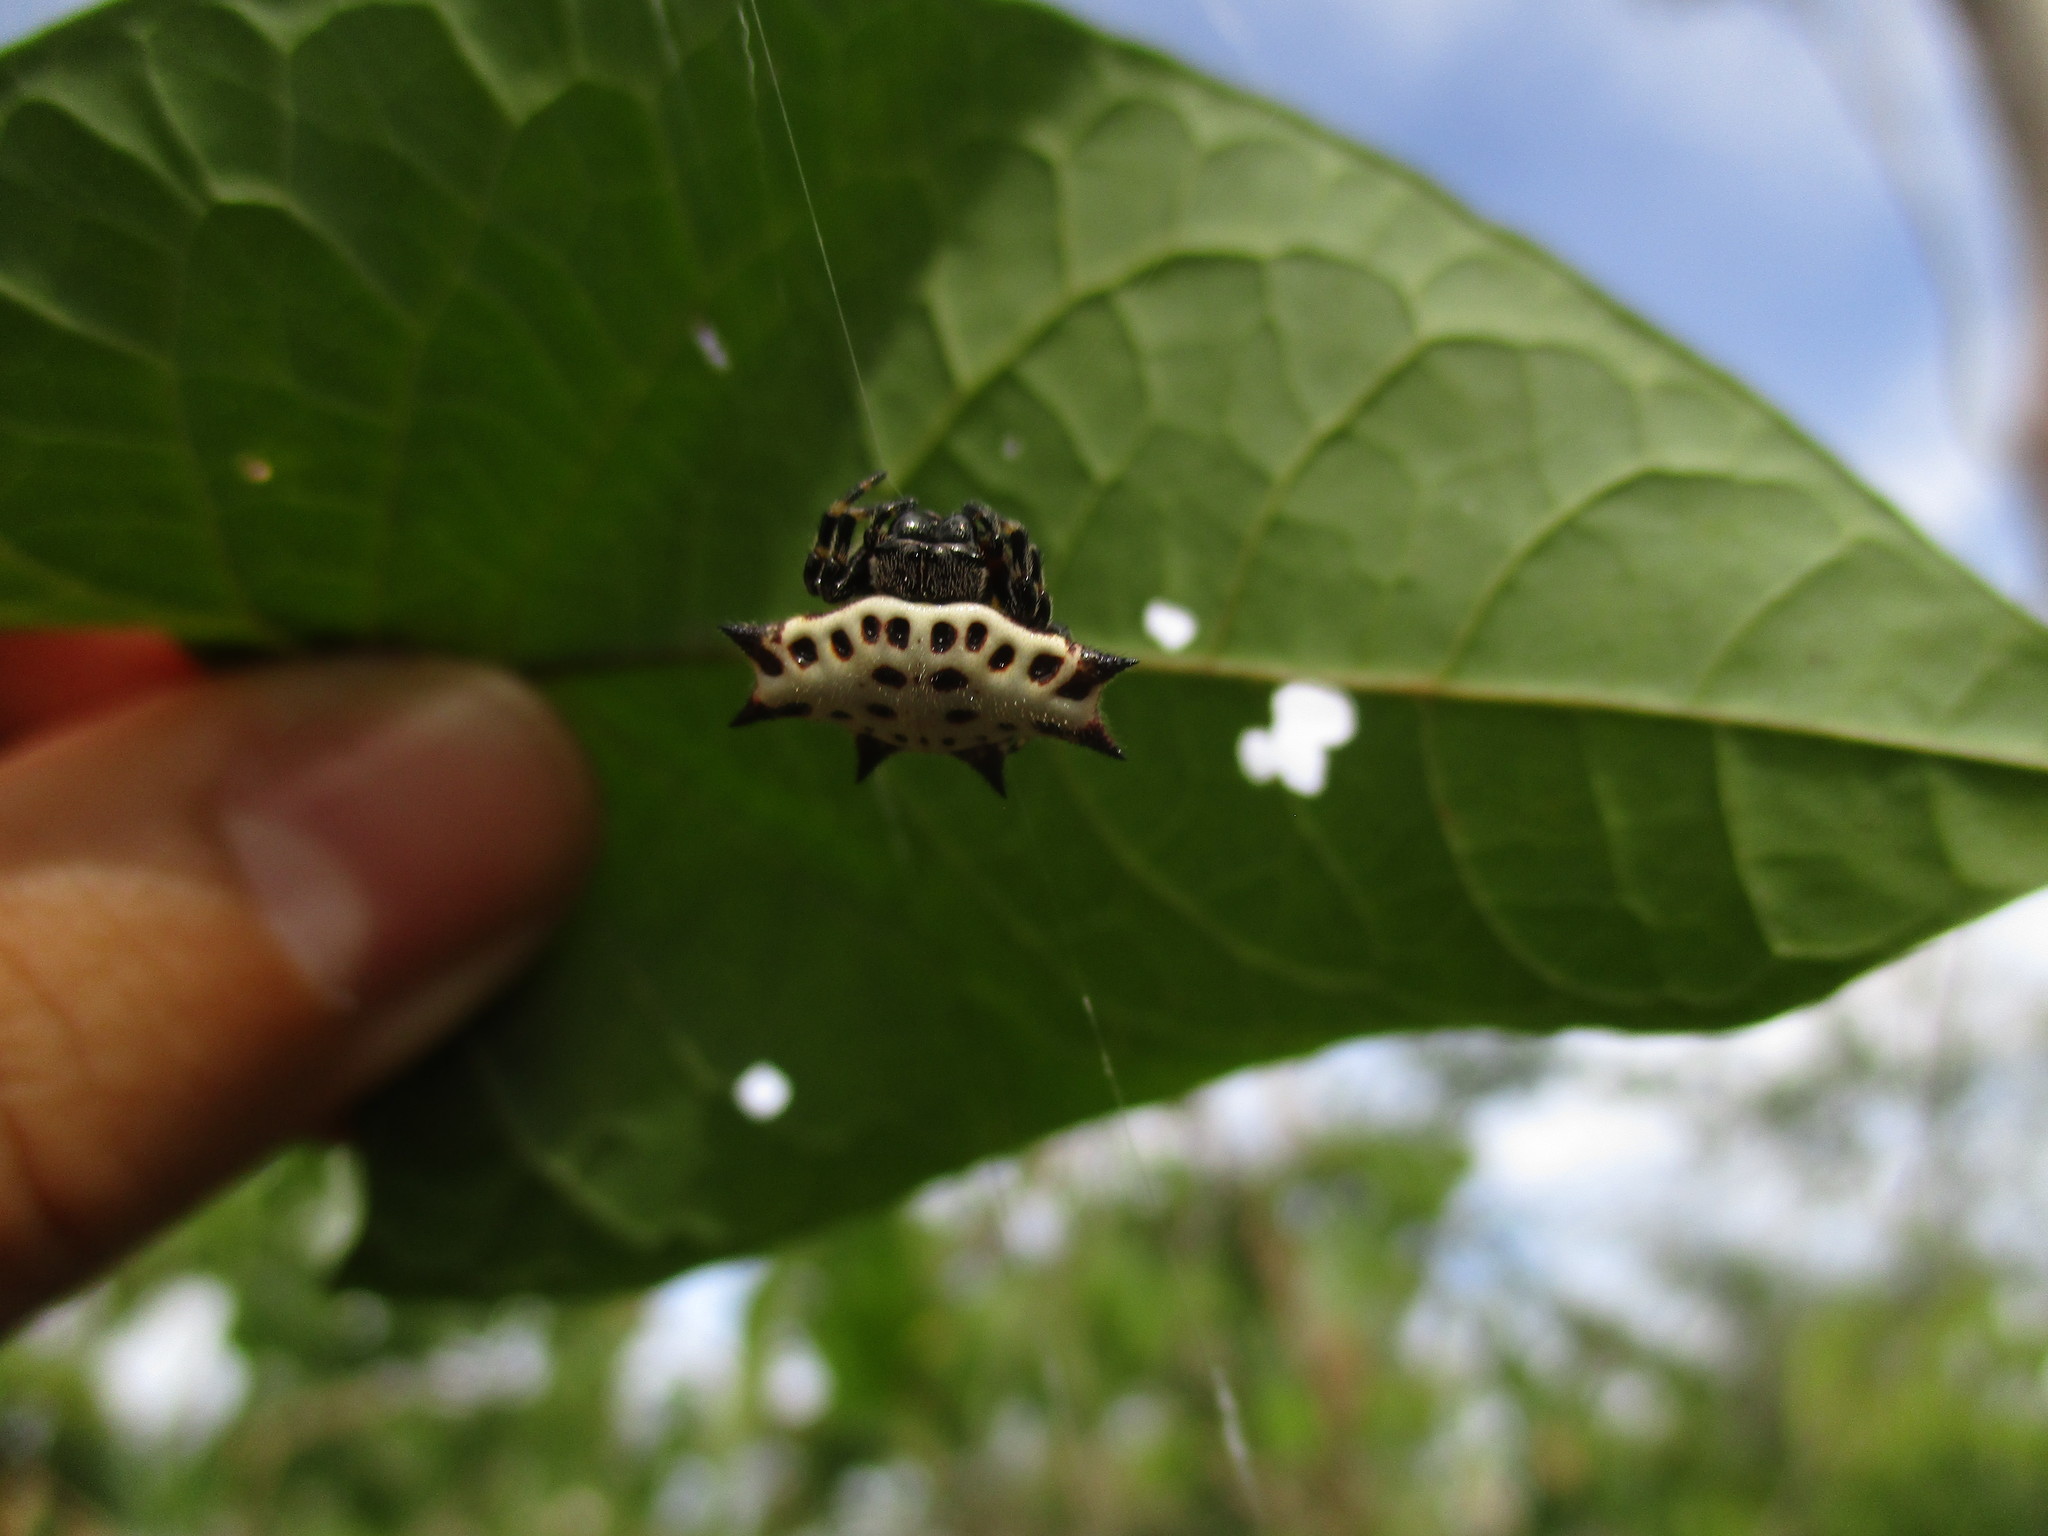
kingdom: Animalia
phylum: Arthropoda
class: Arachnida
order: Araneae
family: Araneidae
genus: Gasteracantha
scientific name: Gasteracantha cancriformis
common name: Orb weavers
